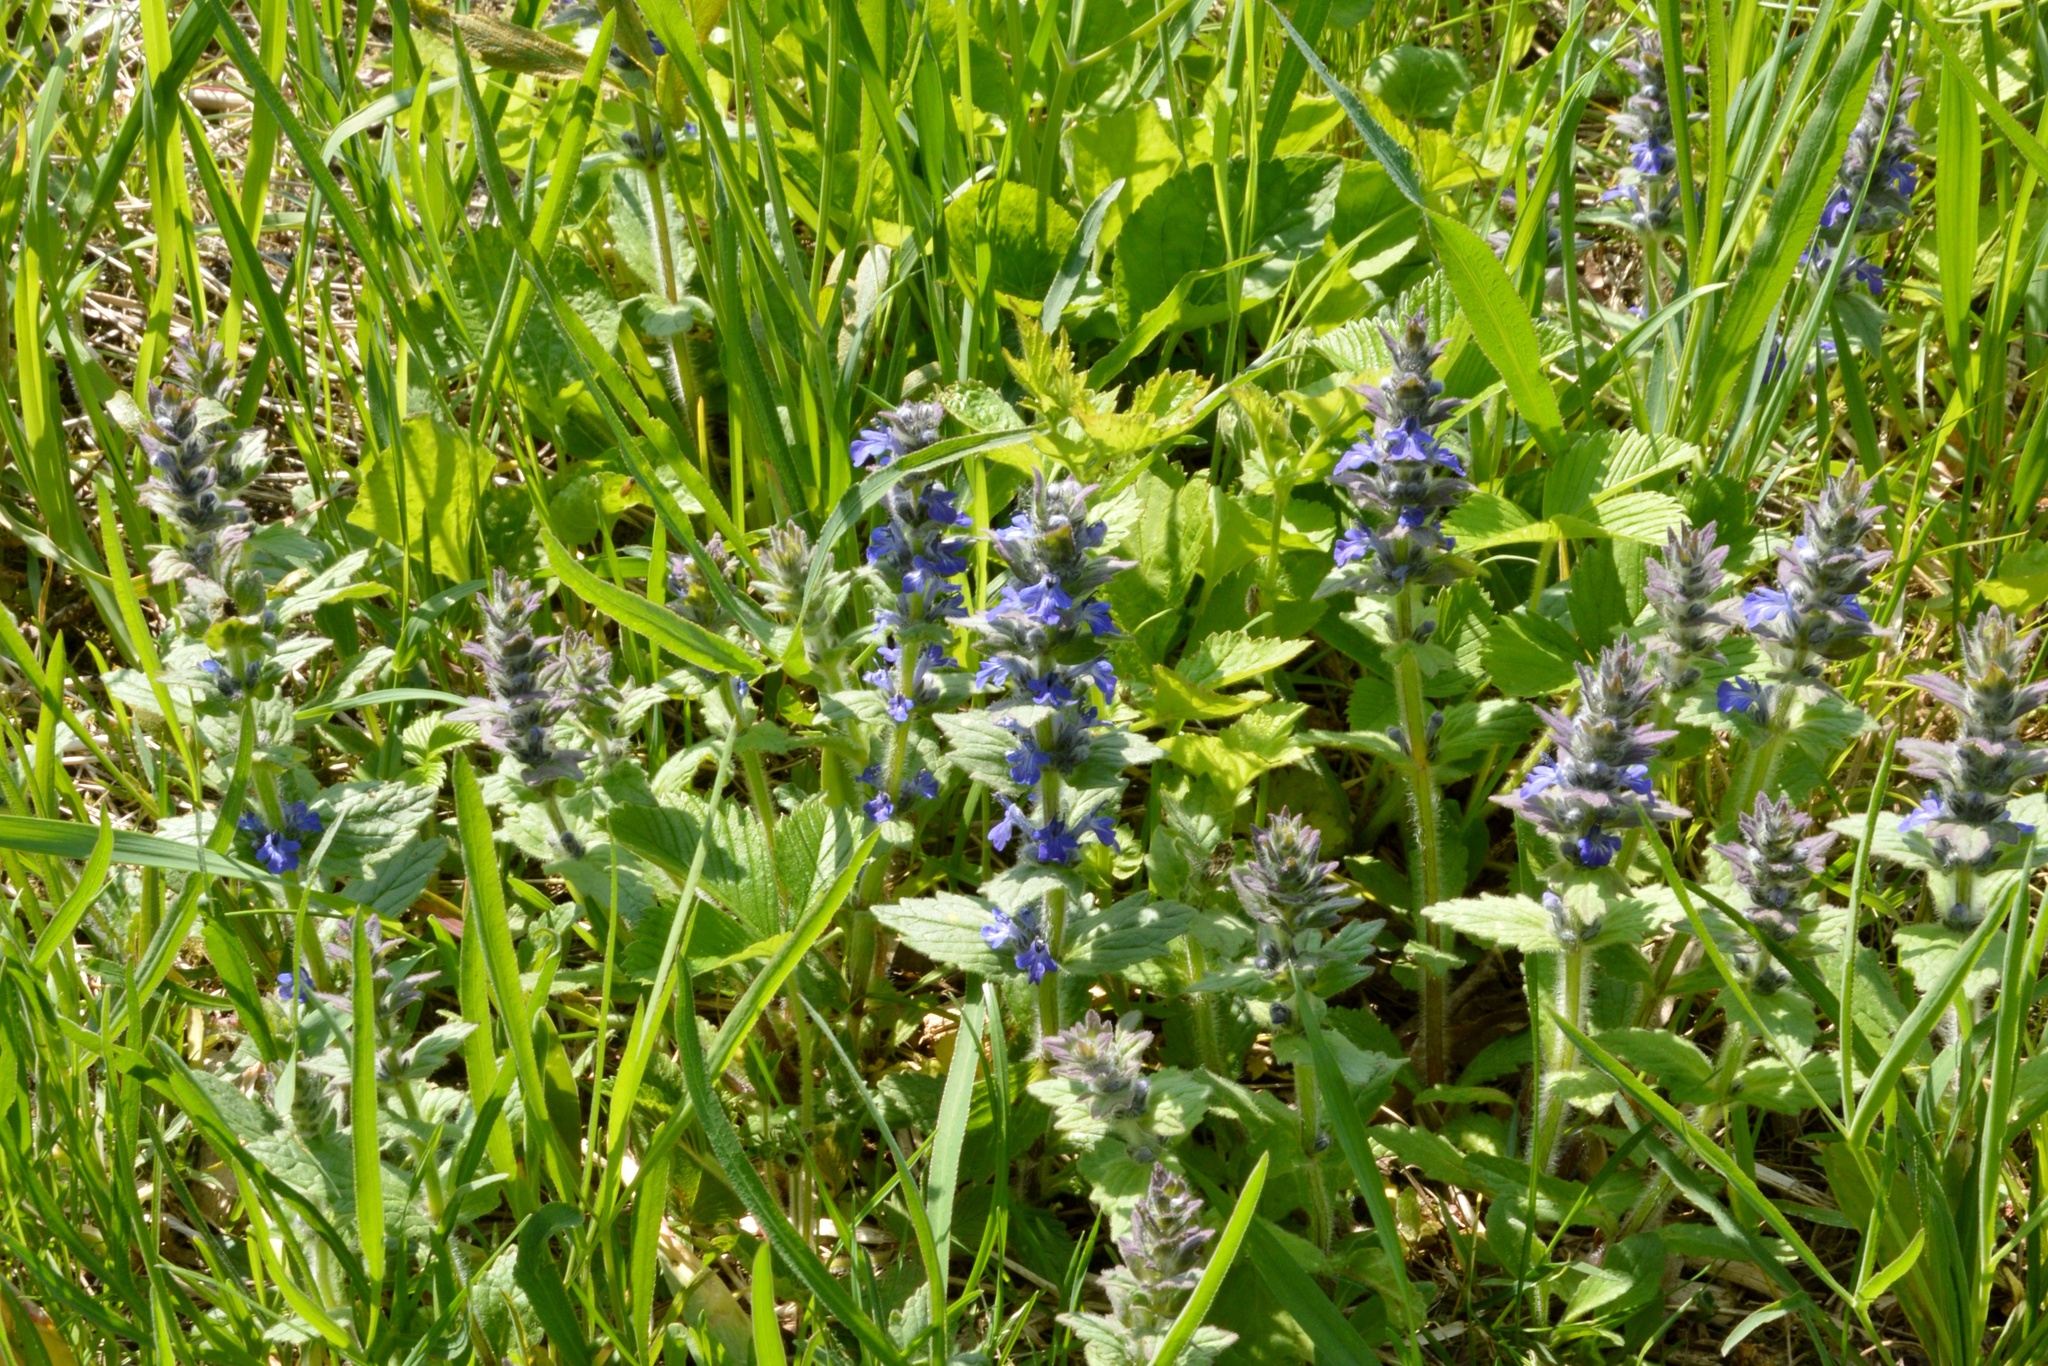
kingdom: Plantae
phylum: Tracheophyta
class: Magnoliopsida
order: Lamiales
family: Lamiaceae
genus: Ajuga
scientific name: Ajuga genevensis
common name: Blue bugle
